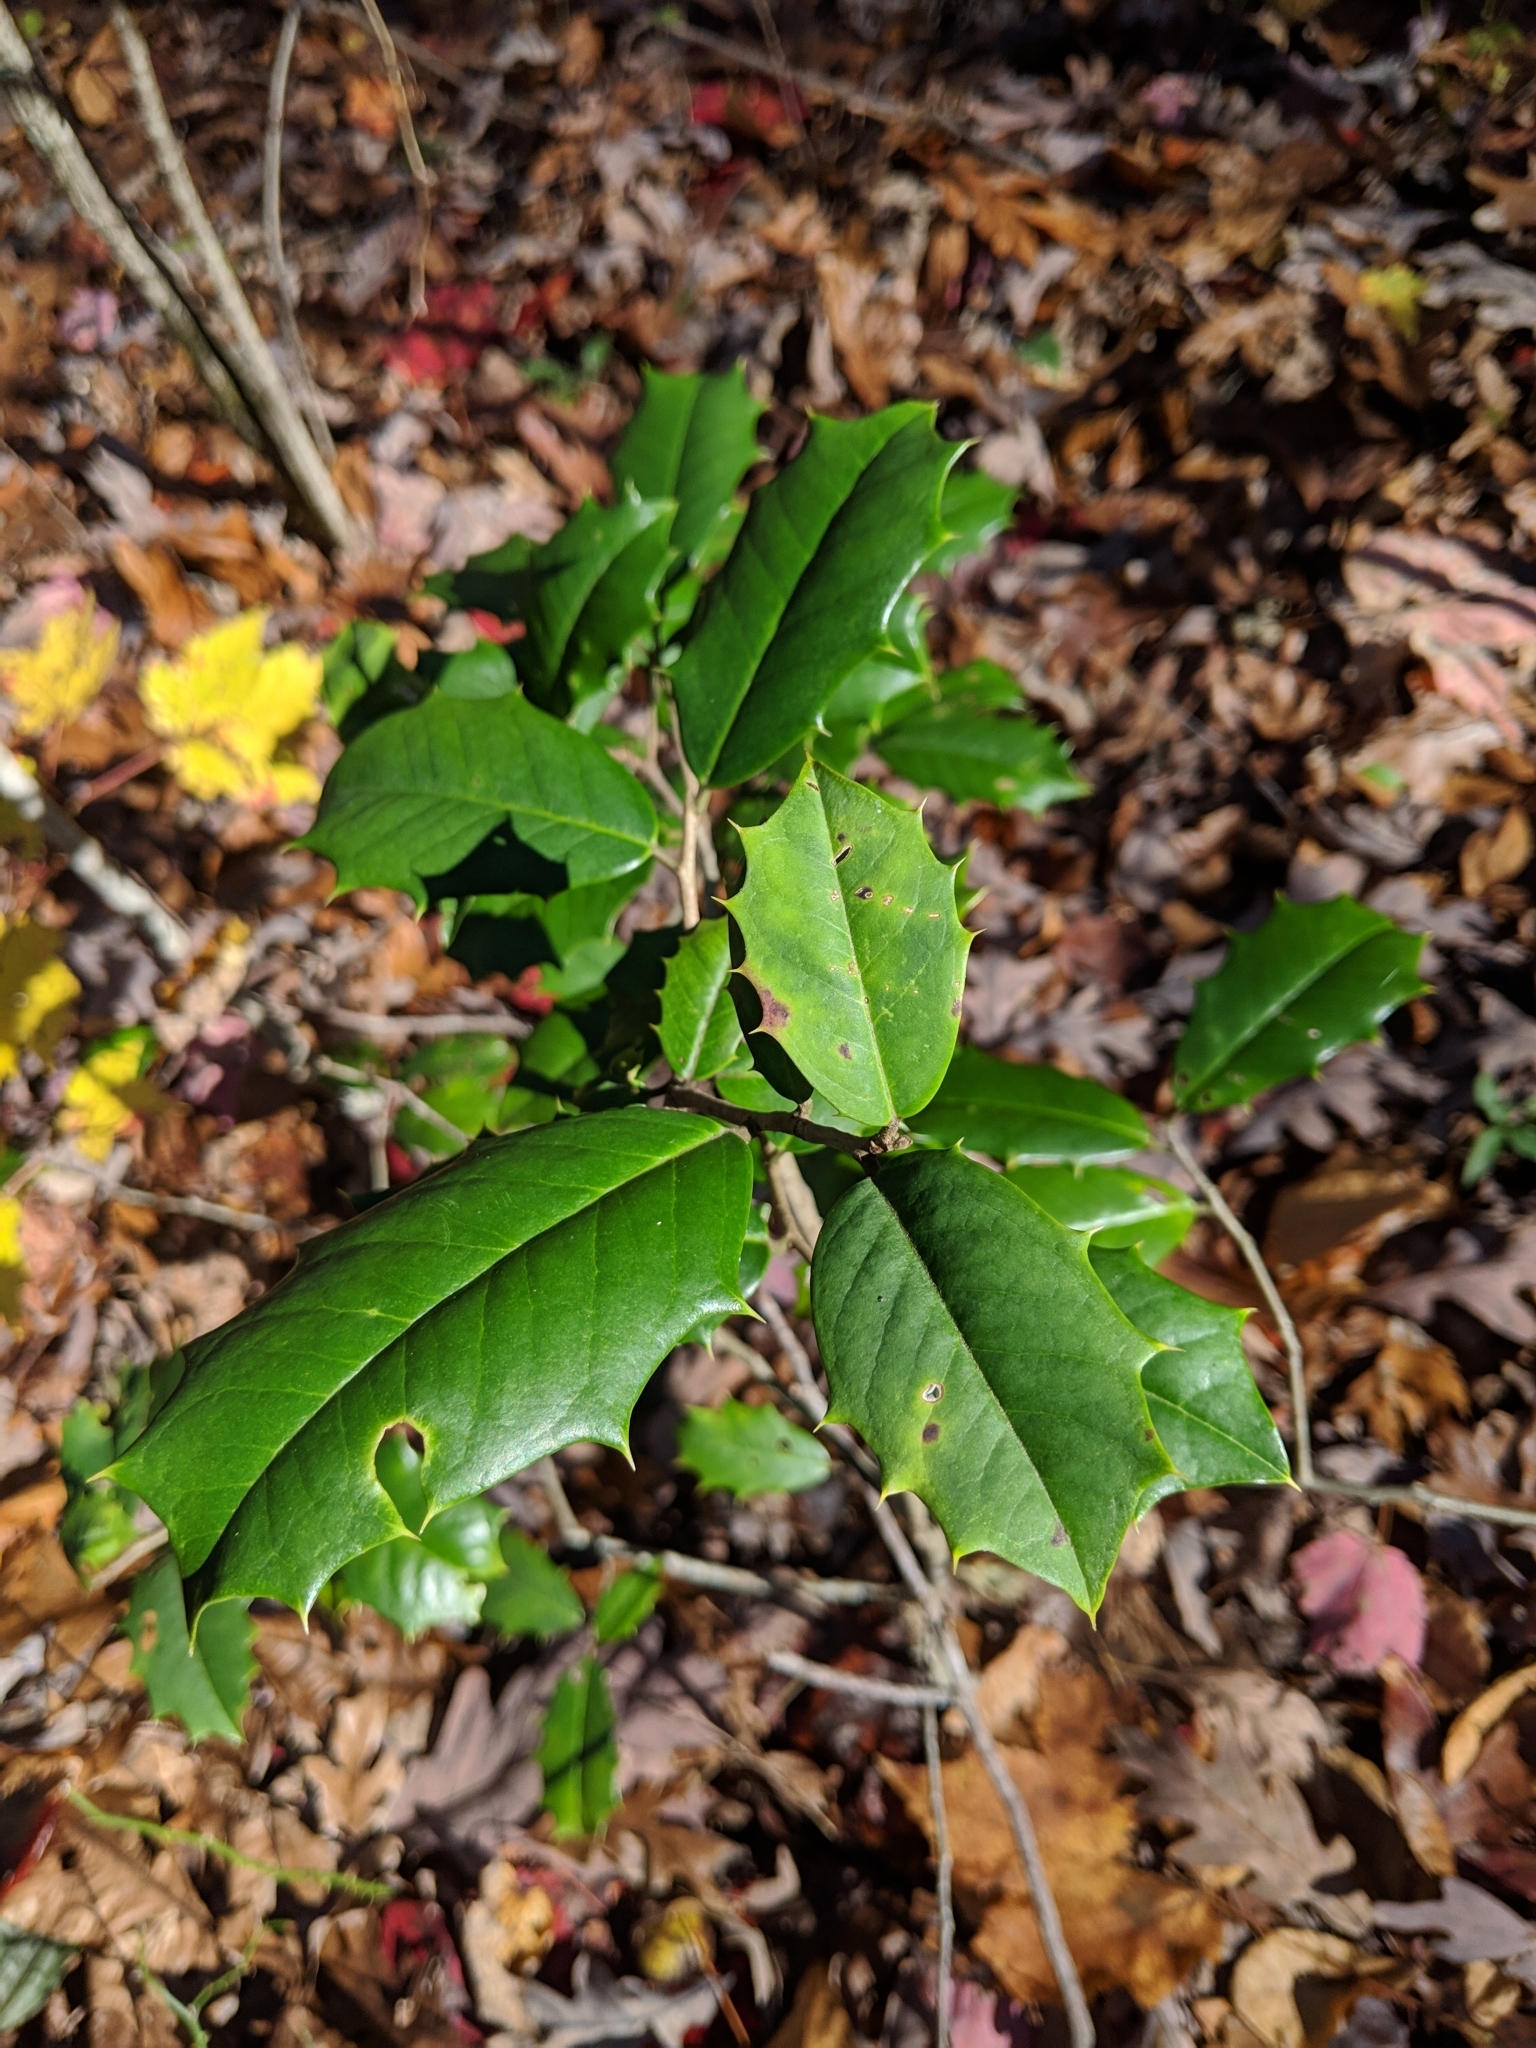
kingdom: Plantae
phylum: Tracheophyta
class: Magnoliopsida
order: Aquifoliales
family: Aquifoliaceae
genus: Ilex
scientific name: Ilex opaca
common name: American holly
